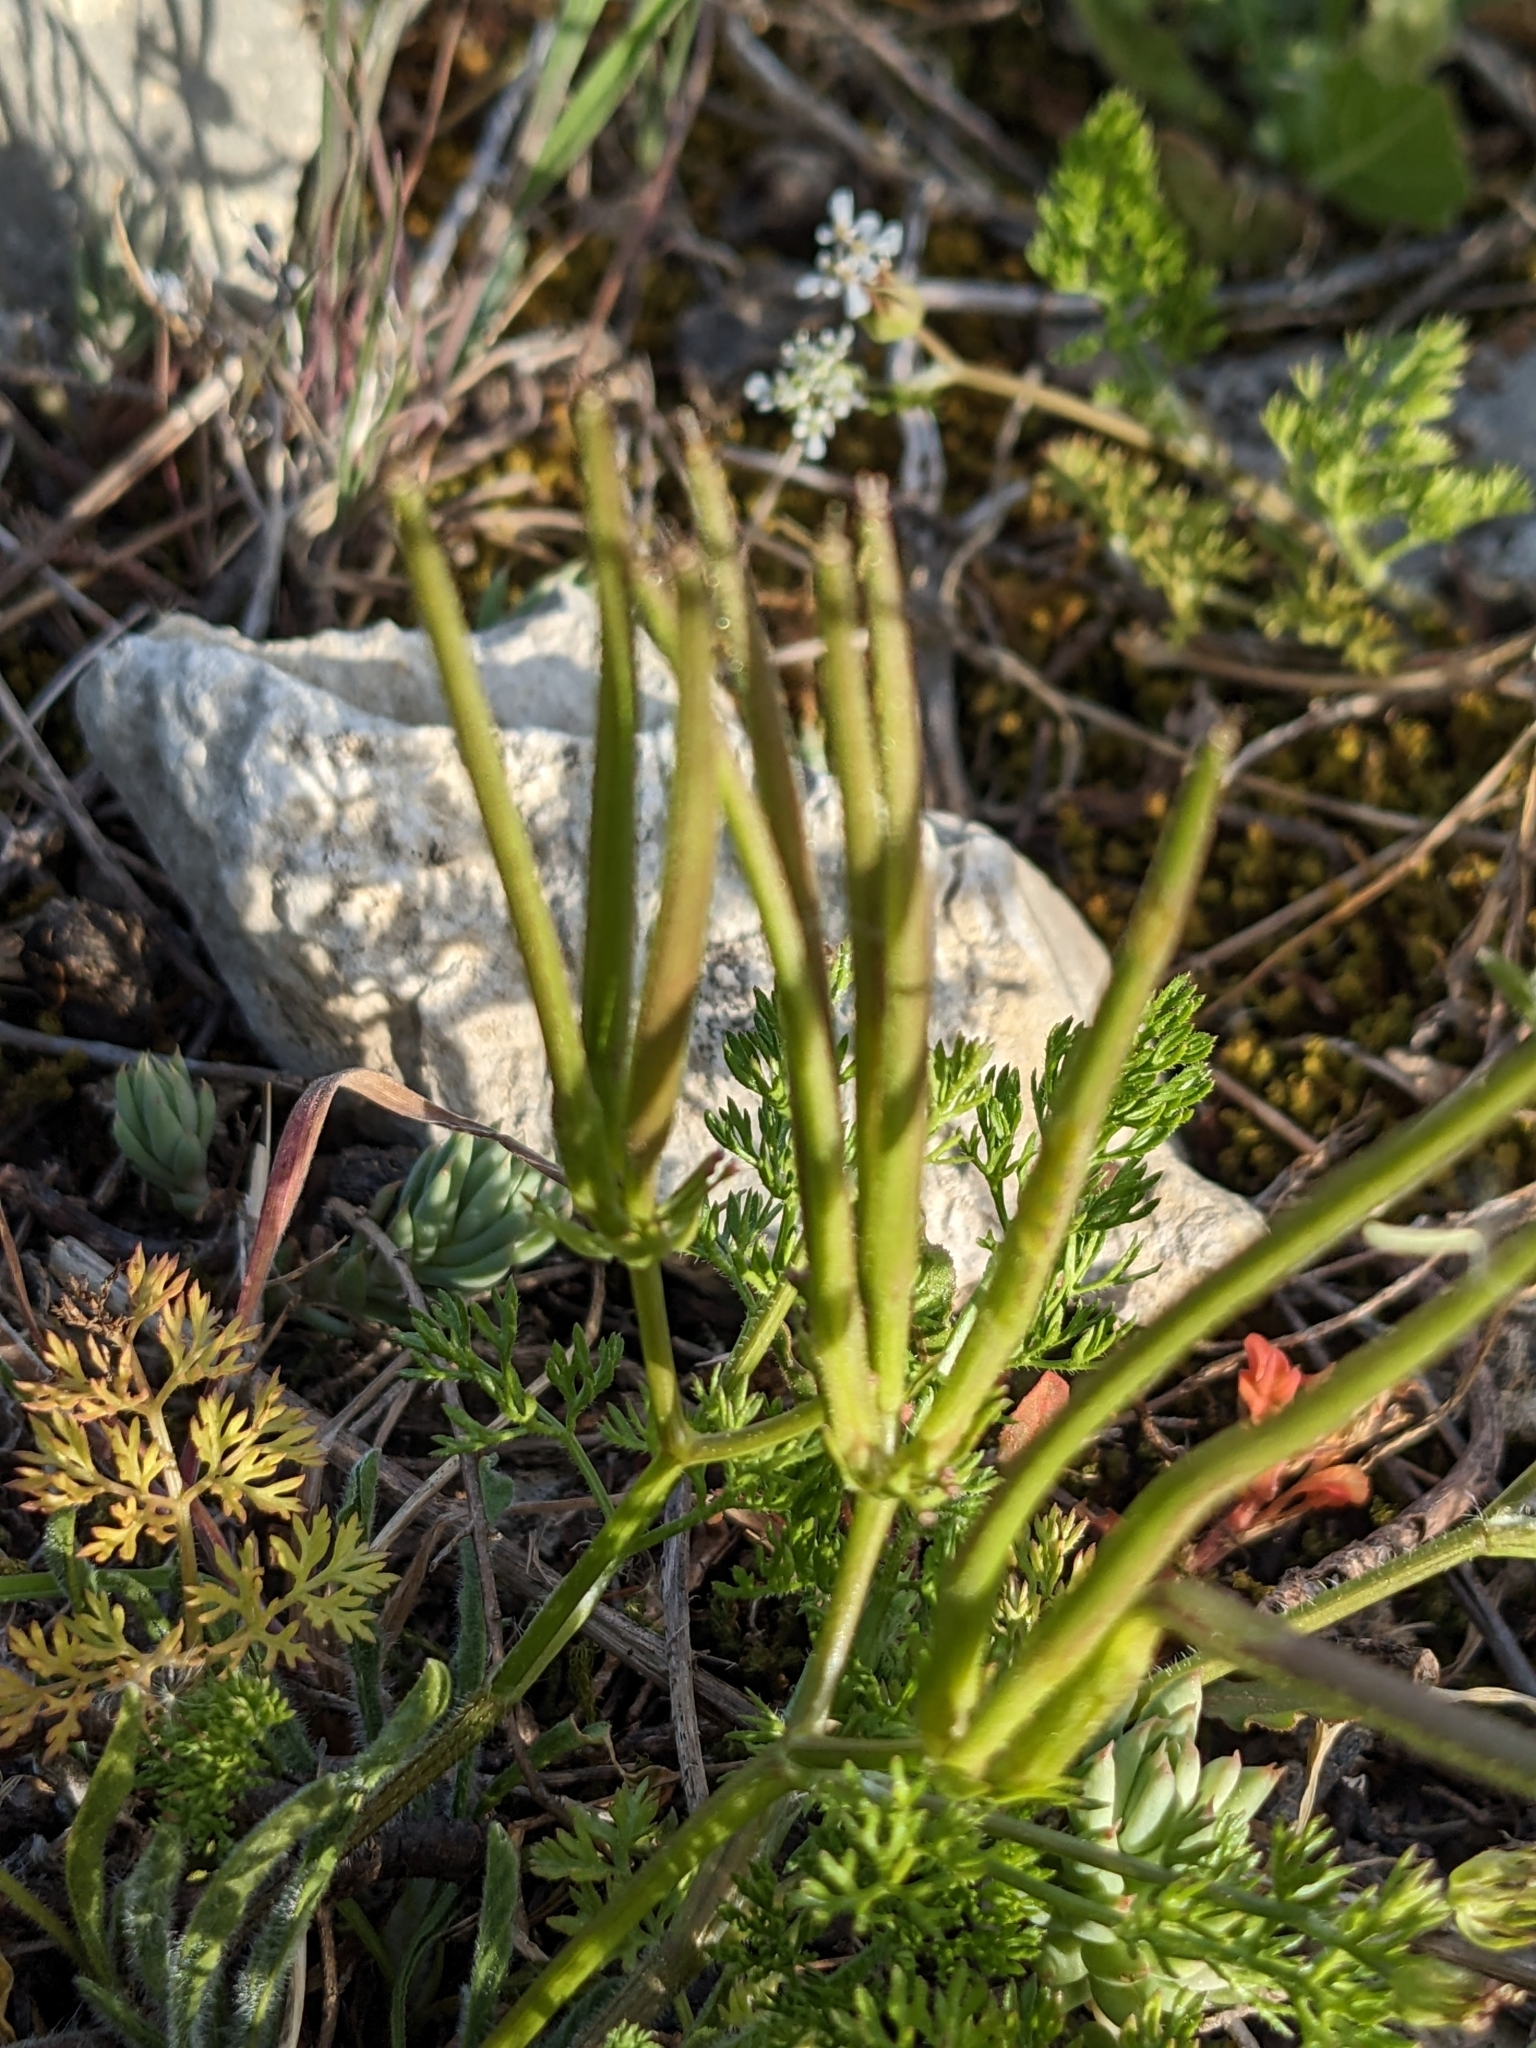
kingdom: Plantae
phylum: Tracheophyta
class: Magnoliopsida
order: Apiales
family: Apiaceae
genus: Scandix
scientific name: Scandix pecten-veneris
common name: Shepherd's-needle
